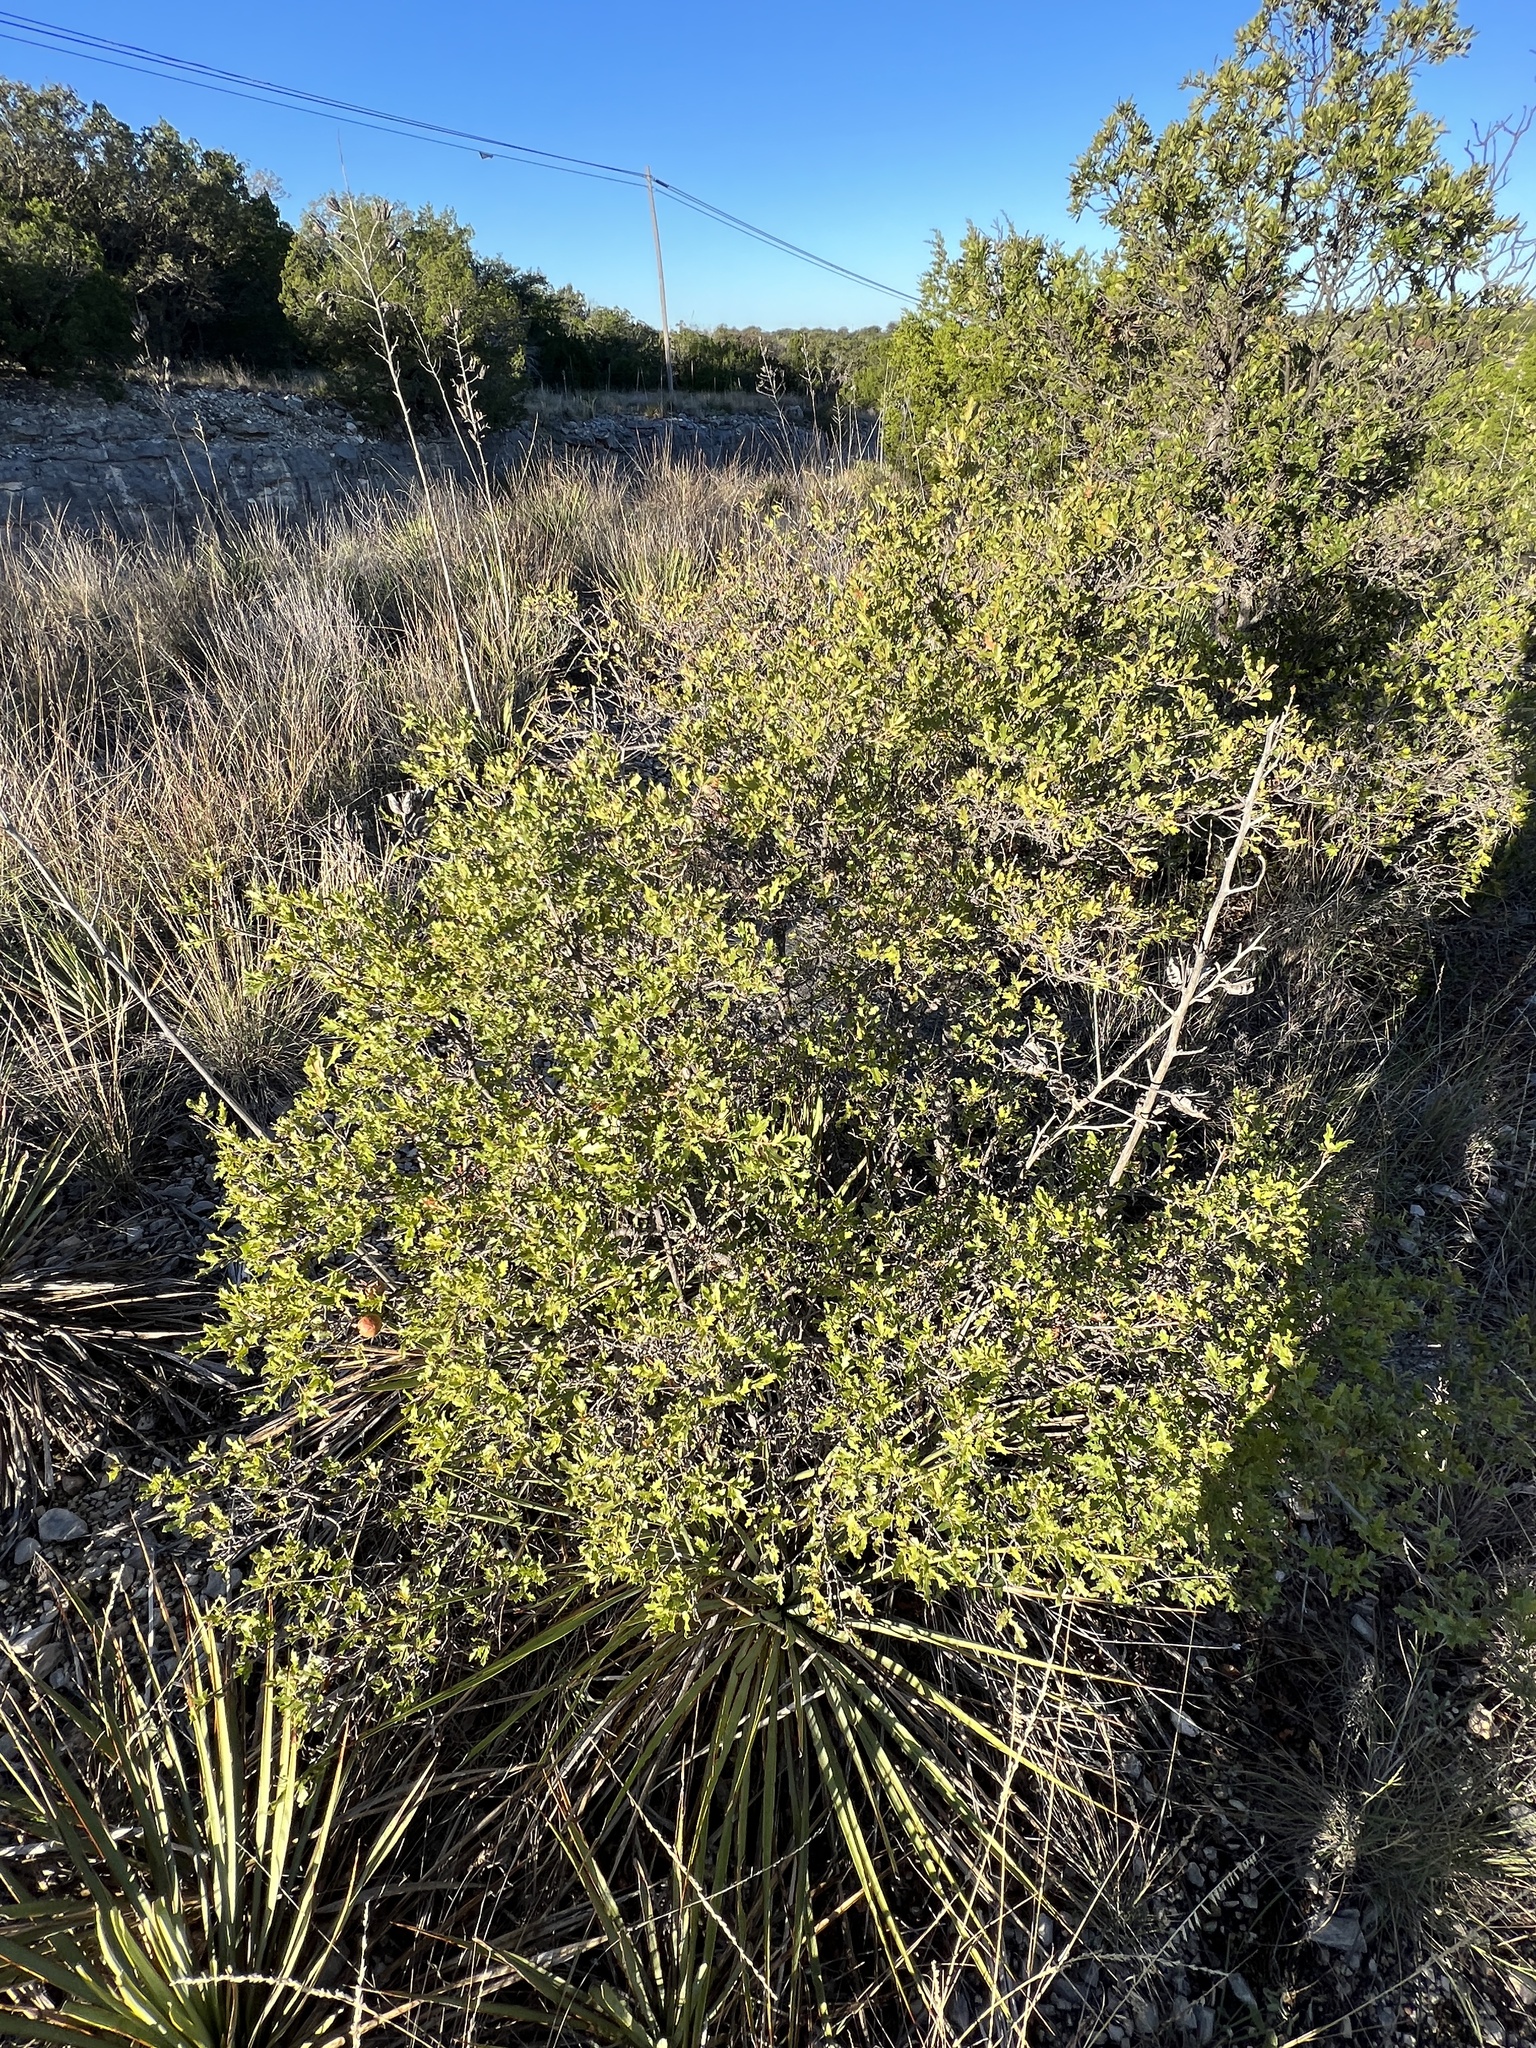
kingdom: Plantae
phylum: Tracheophyta
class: Magnoliopsida
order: Fagales
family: Fagaceae
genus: Quercus
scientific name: Quercus vaseyana
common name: Sandpaper oak
